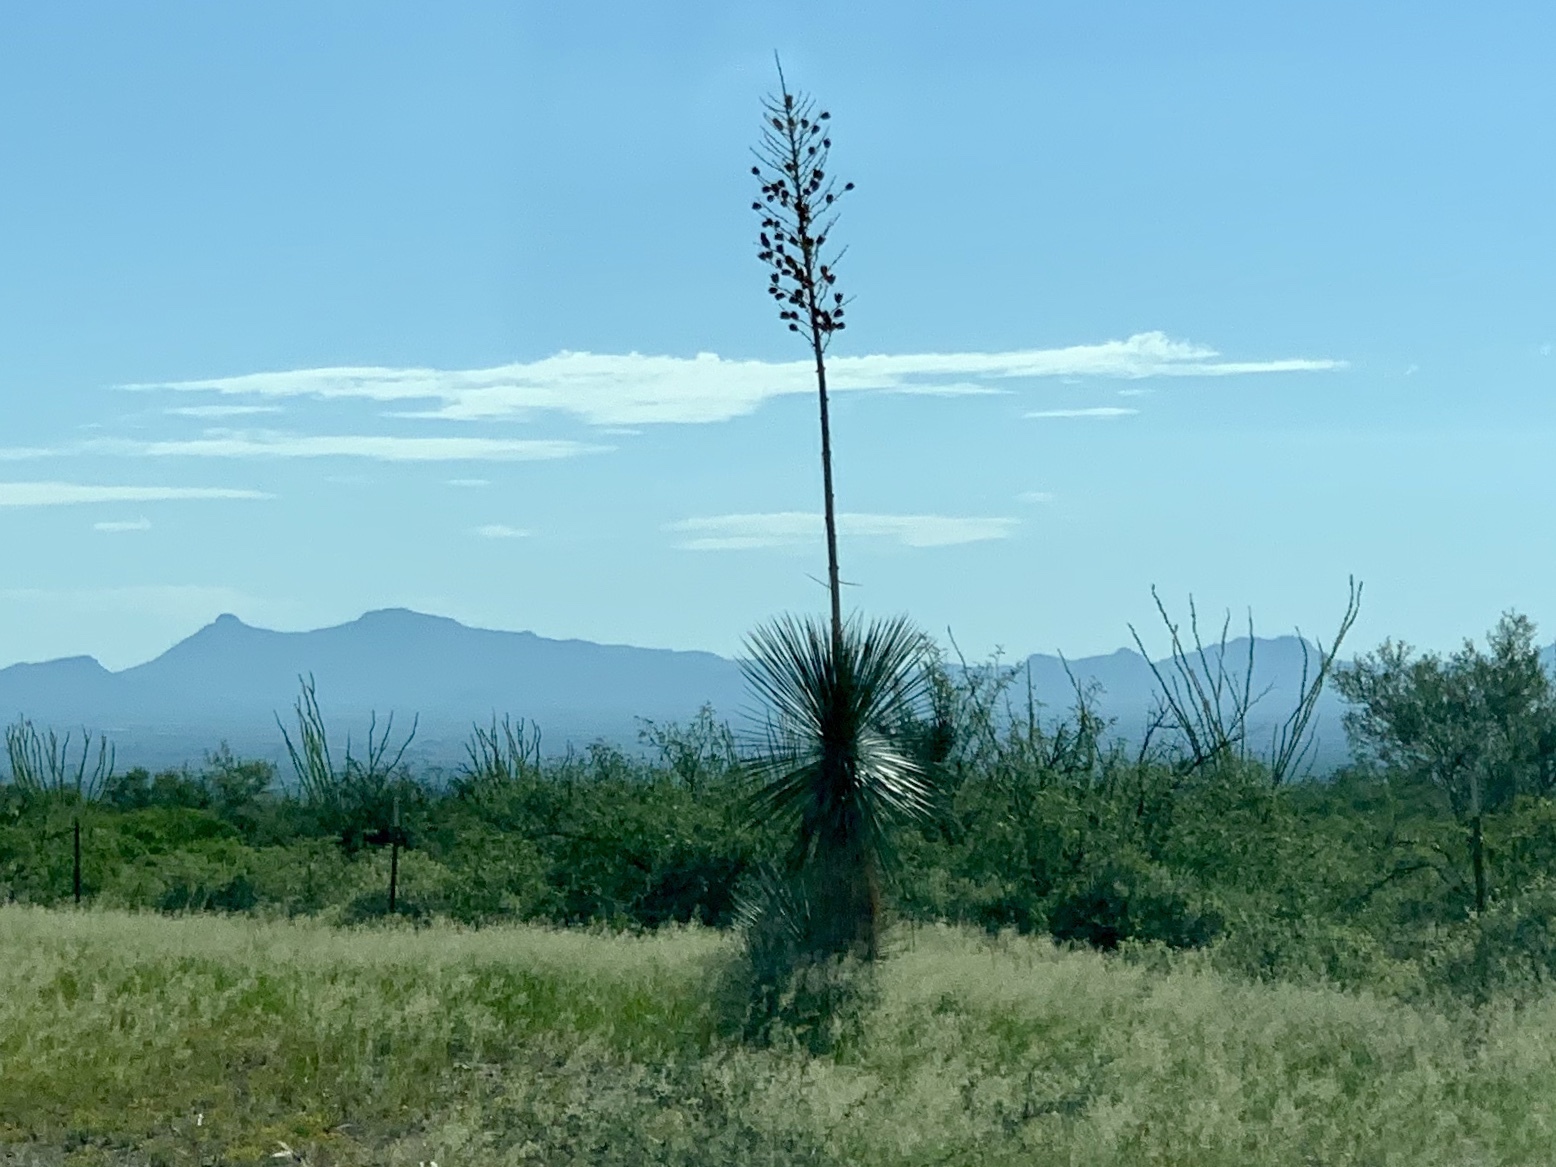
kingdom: Plantae
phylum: Tracheophyta
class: Liliopsida
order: Asparagales
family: Asparagaceae
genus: Yucca
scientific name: Yucca elata
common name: Palmella
